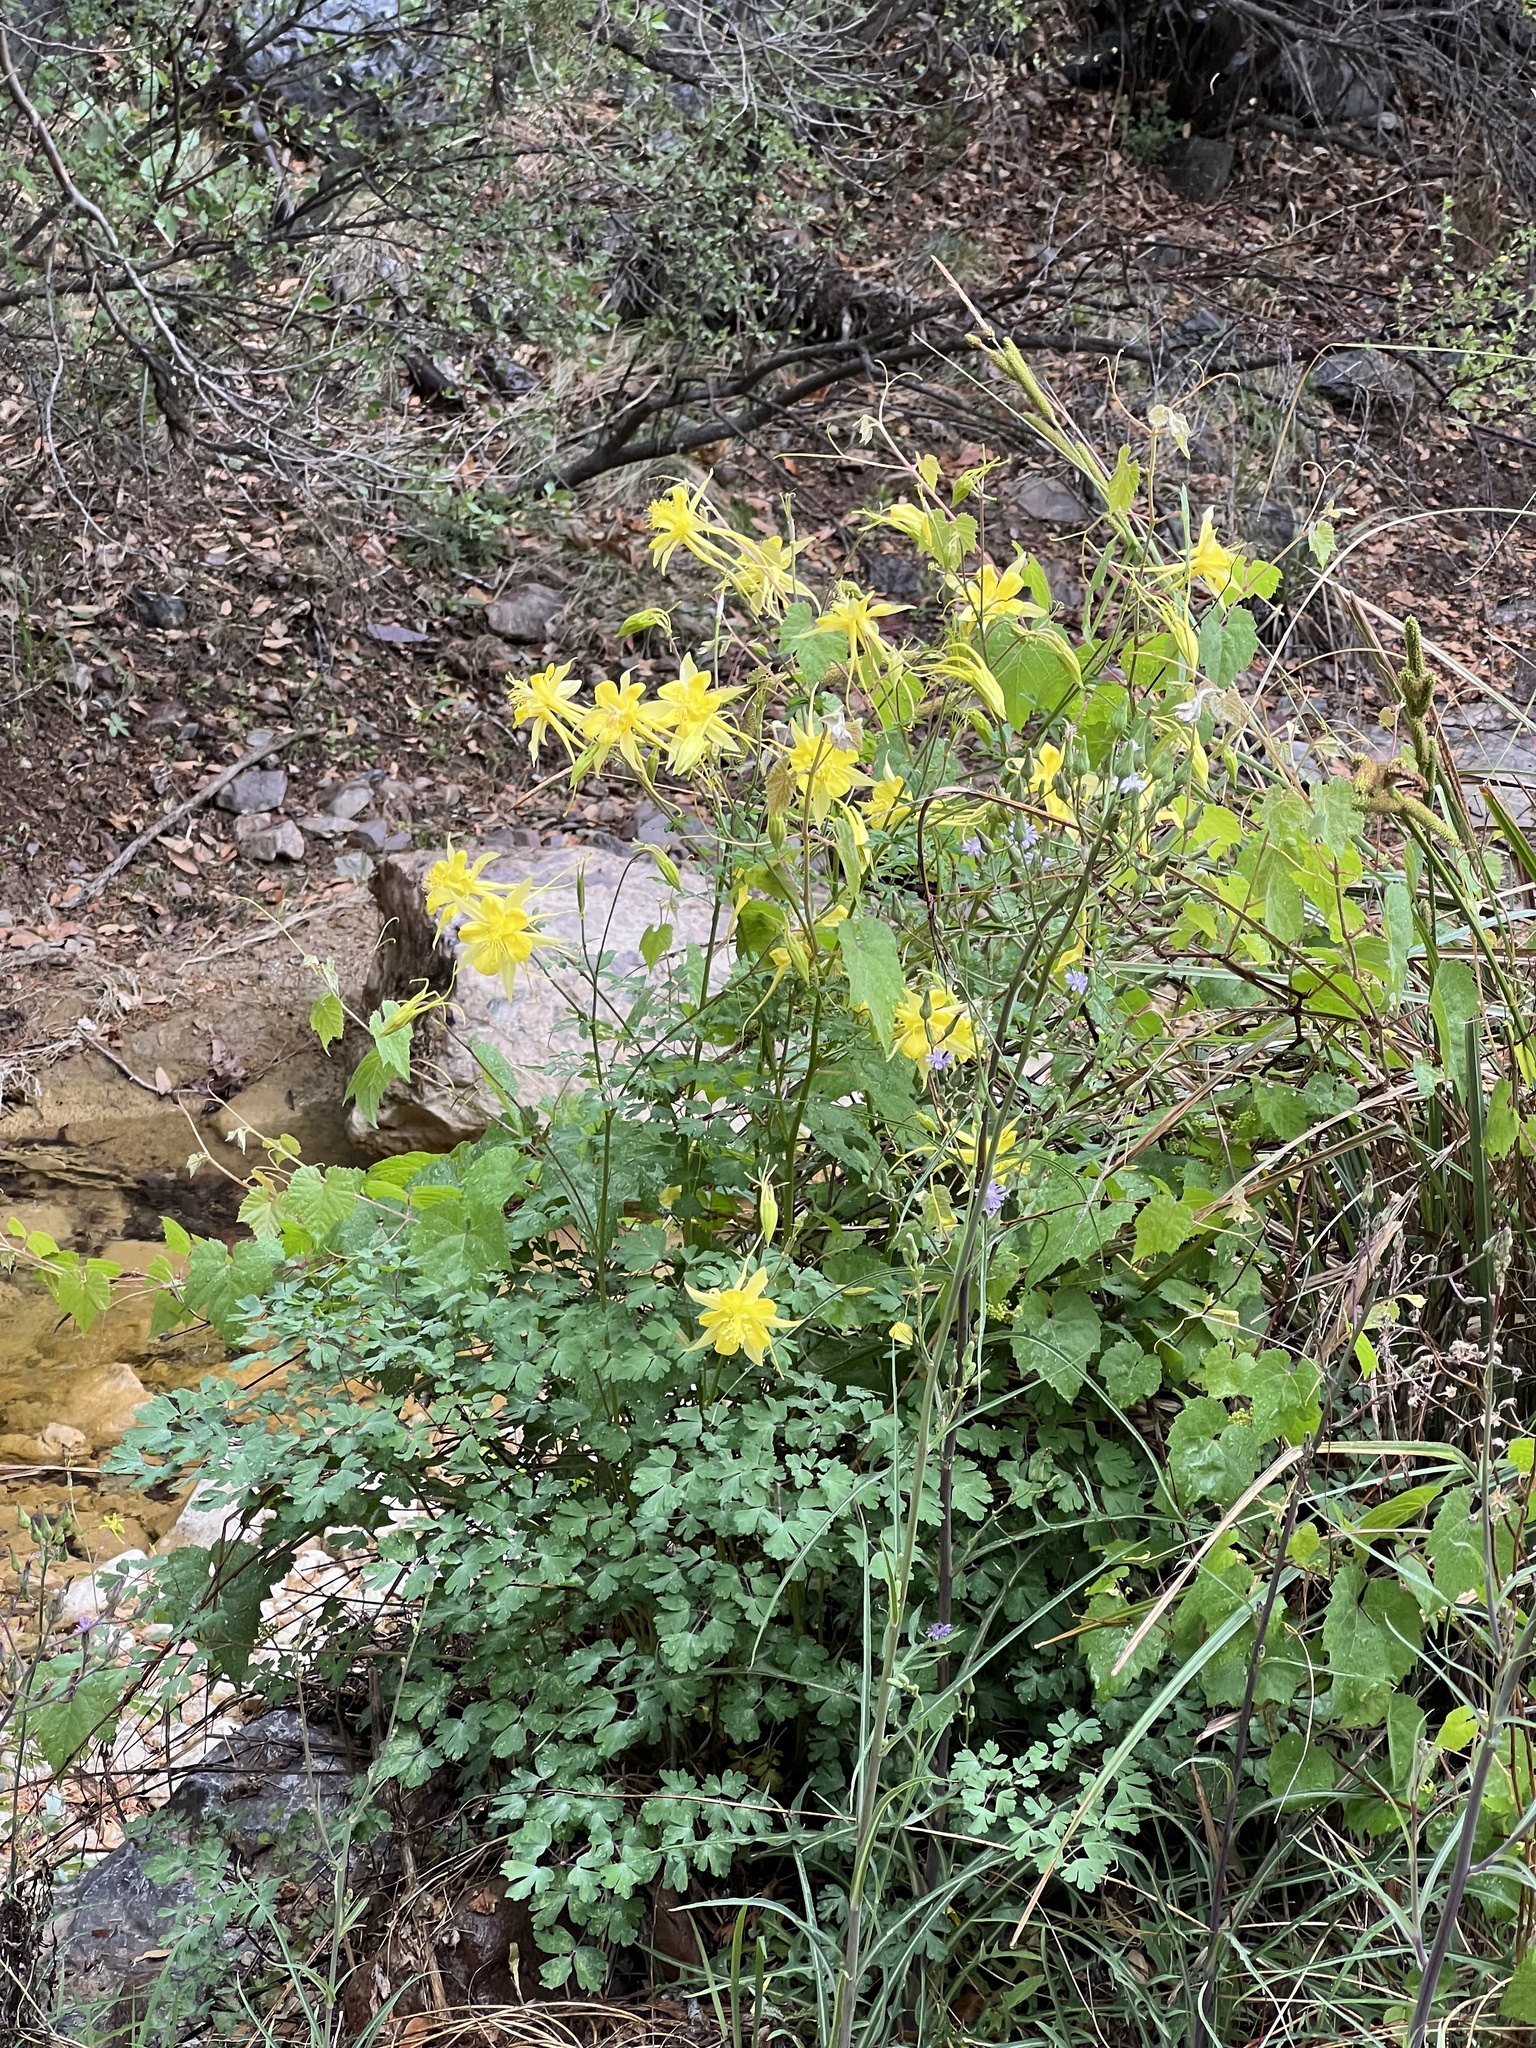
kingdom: Plantae
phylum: Tracheophyta
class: Magnoliopsida
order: Ranunculales
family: Ranunculaceae
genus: Aquilegia
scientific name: Aquilegia chrysantha
